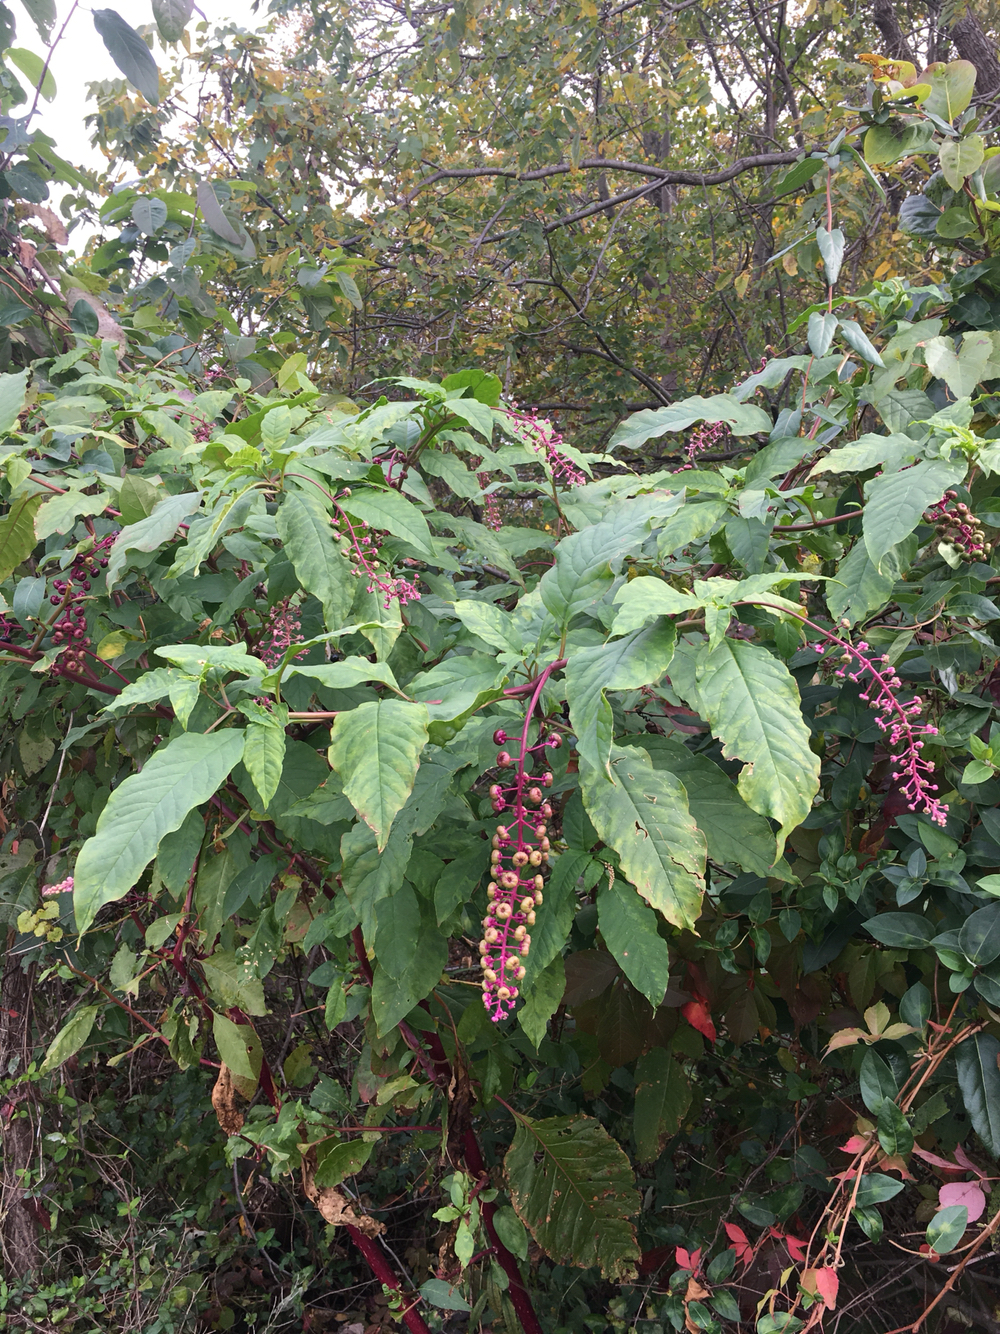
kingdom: Plantae
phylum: Tracheophyta
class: Magnoliopsida
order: Caryophyllales
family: Phytolaccaceae
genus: Phytolacca
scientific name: Phytolacca americana
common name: American pokeweed
